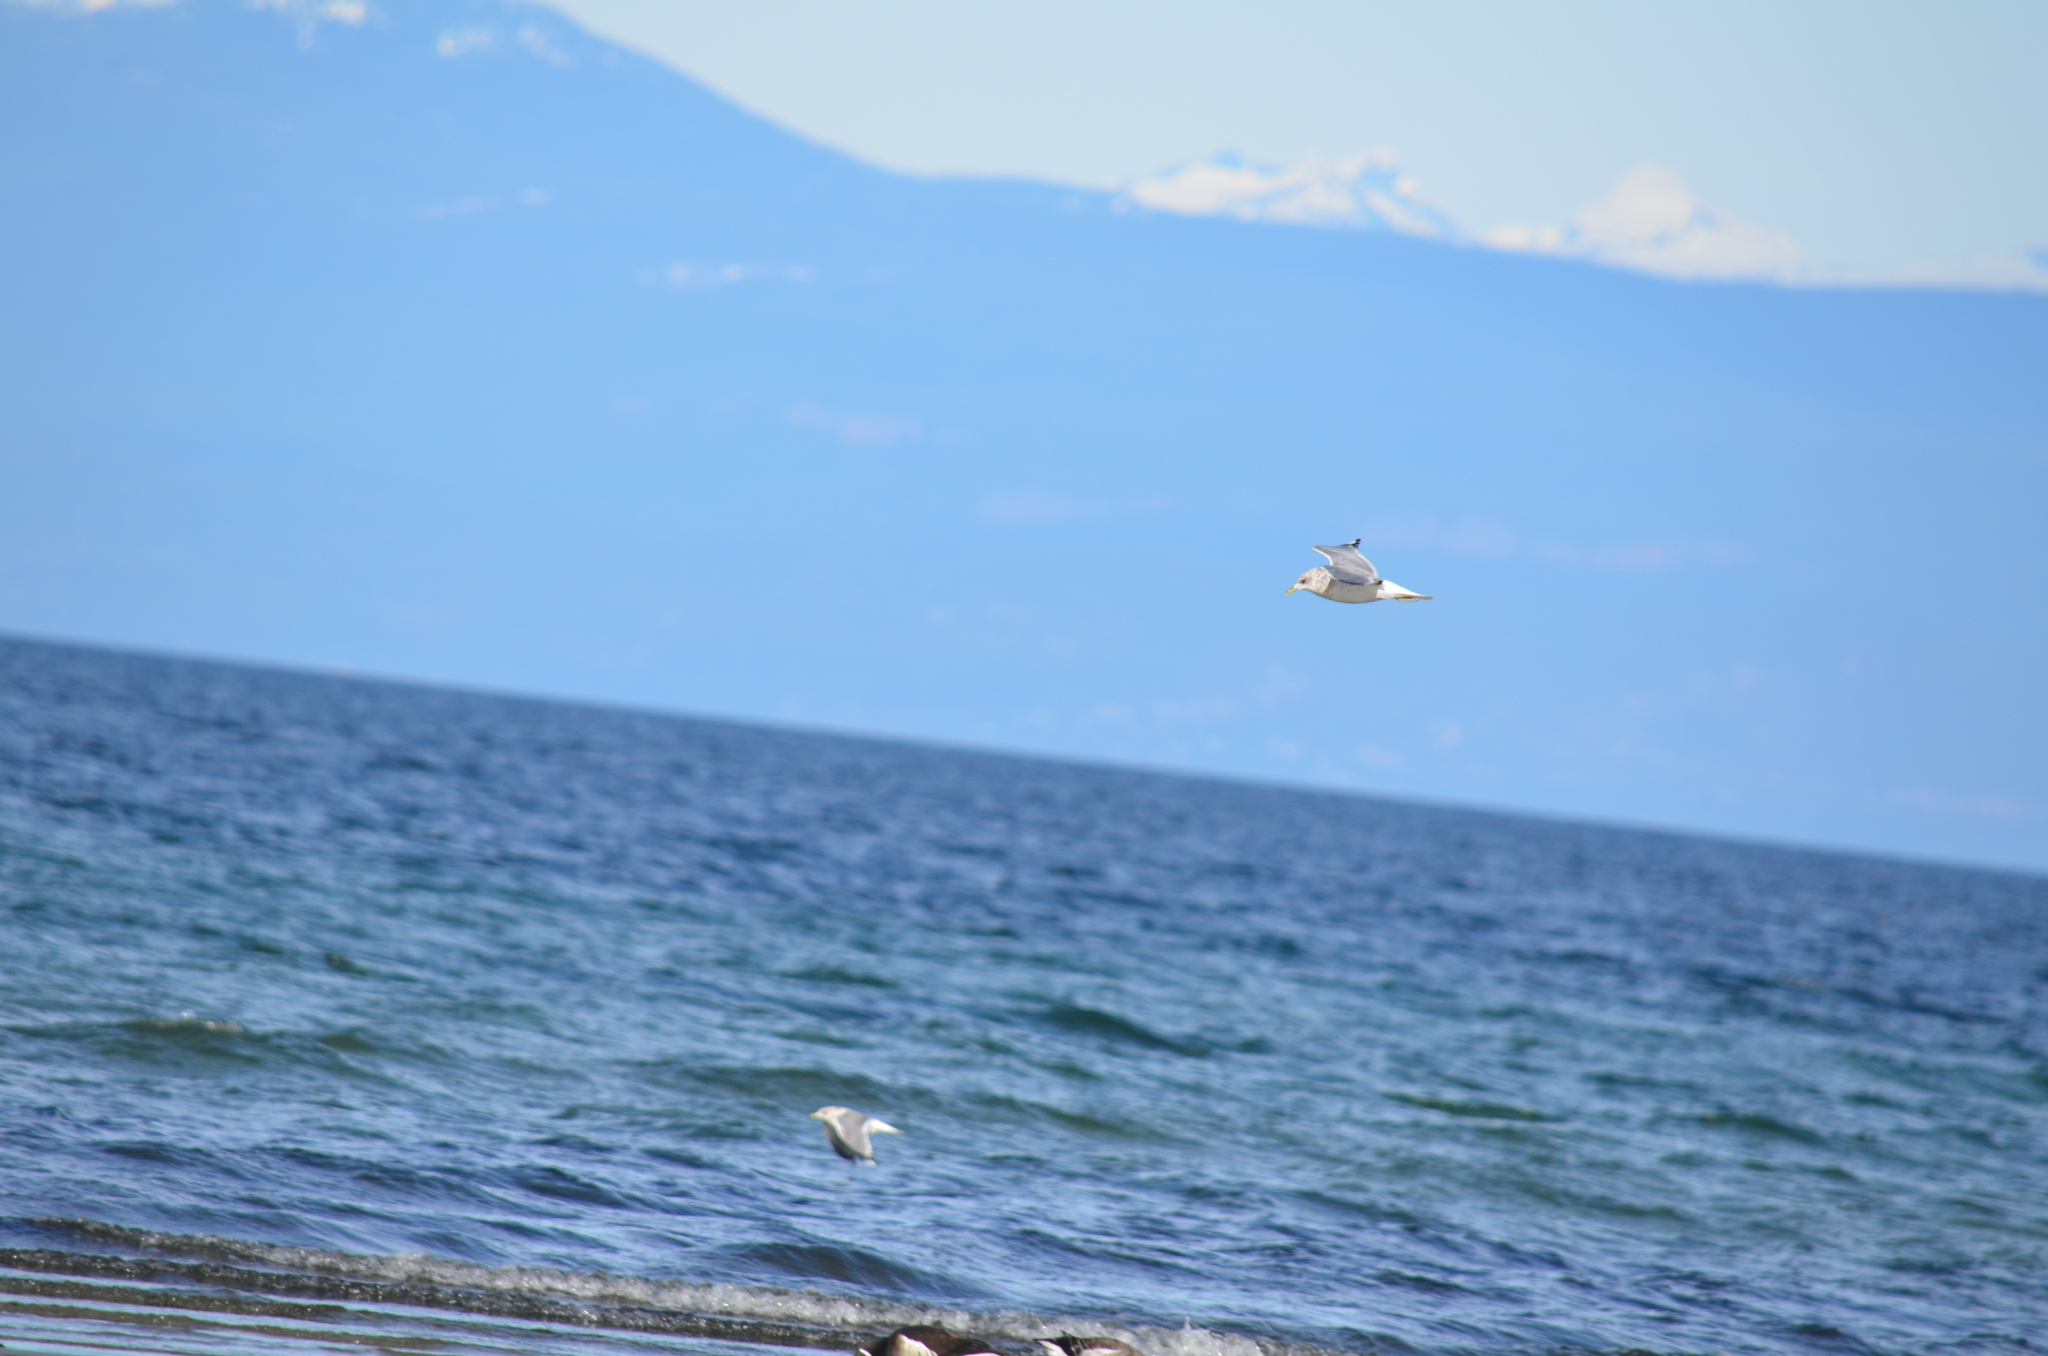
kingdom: Animalia
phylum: Chordata
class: Aves
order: Charadriiformes
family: Laridae
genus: Larus
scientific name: Larus brachyrhynchus
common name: Short-billed gull
